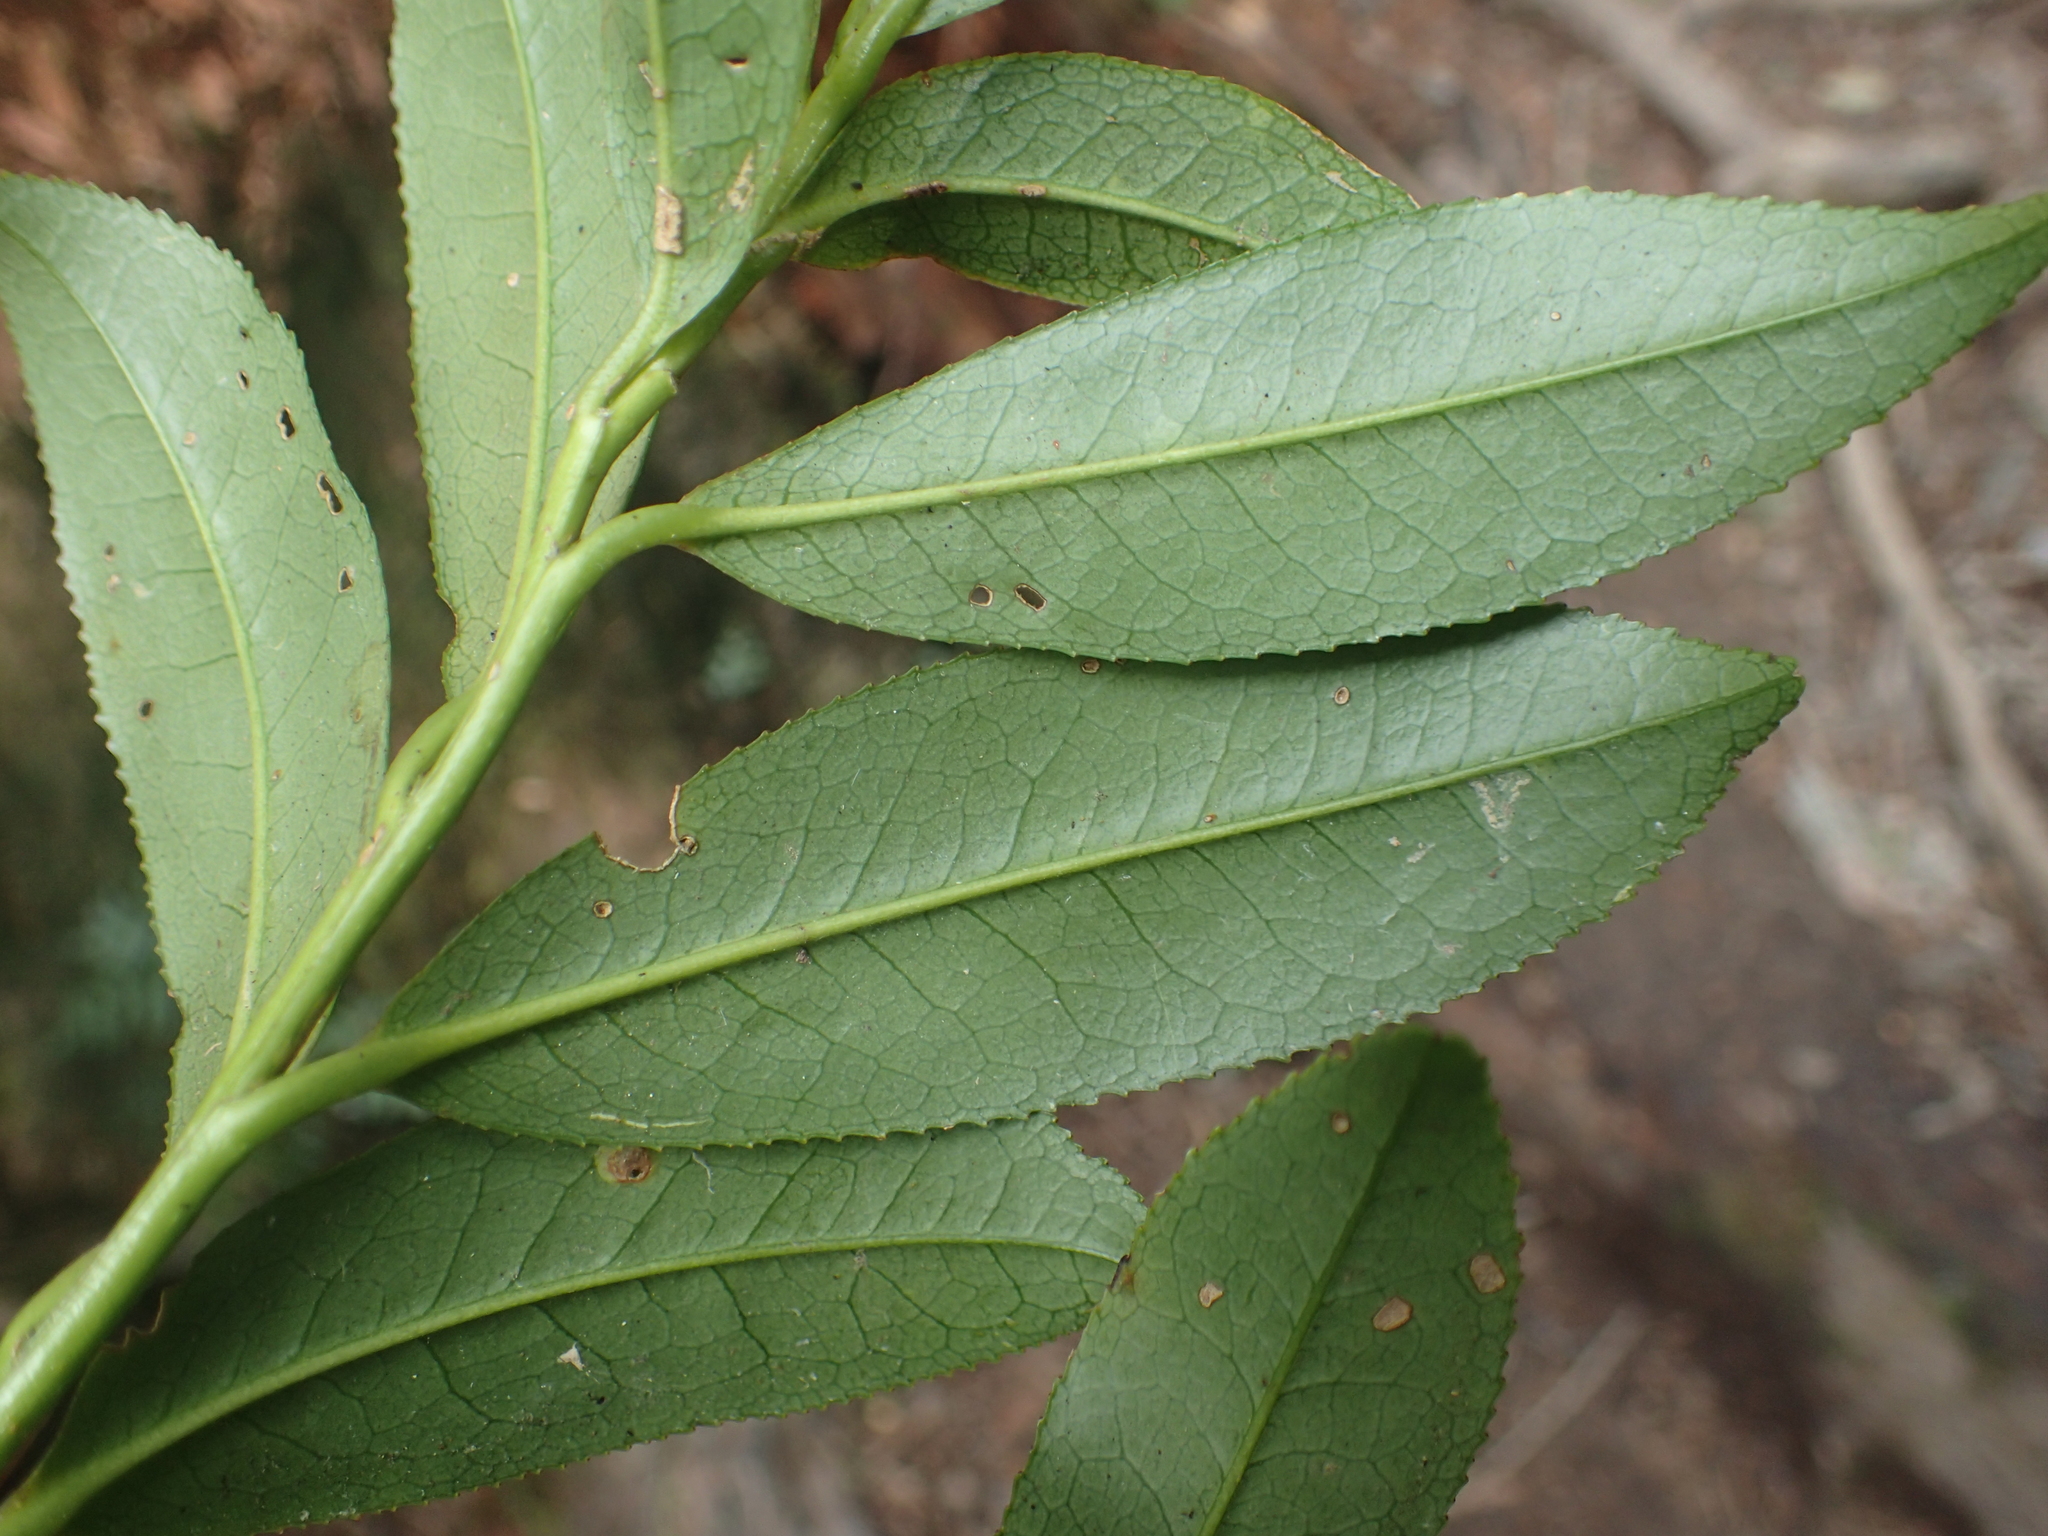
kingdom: Plantae
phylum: Tracheophyta
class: Magnoliopsida
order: Ericales
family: Pentaphylacaceae
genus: Eurya
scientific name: Eurya glaberrima
